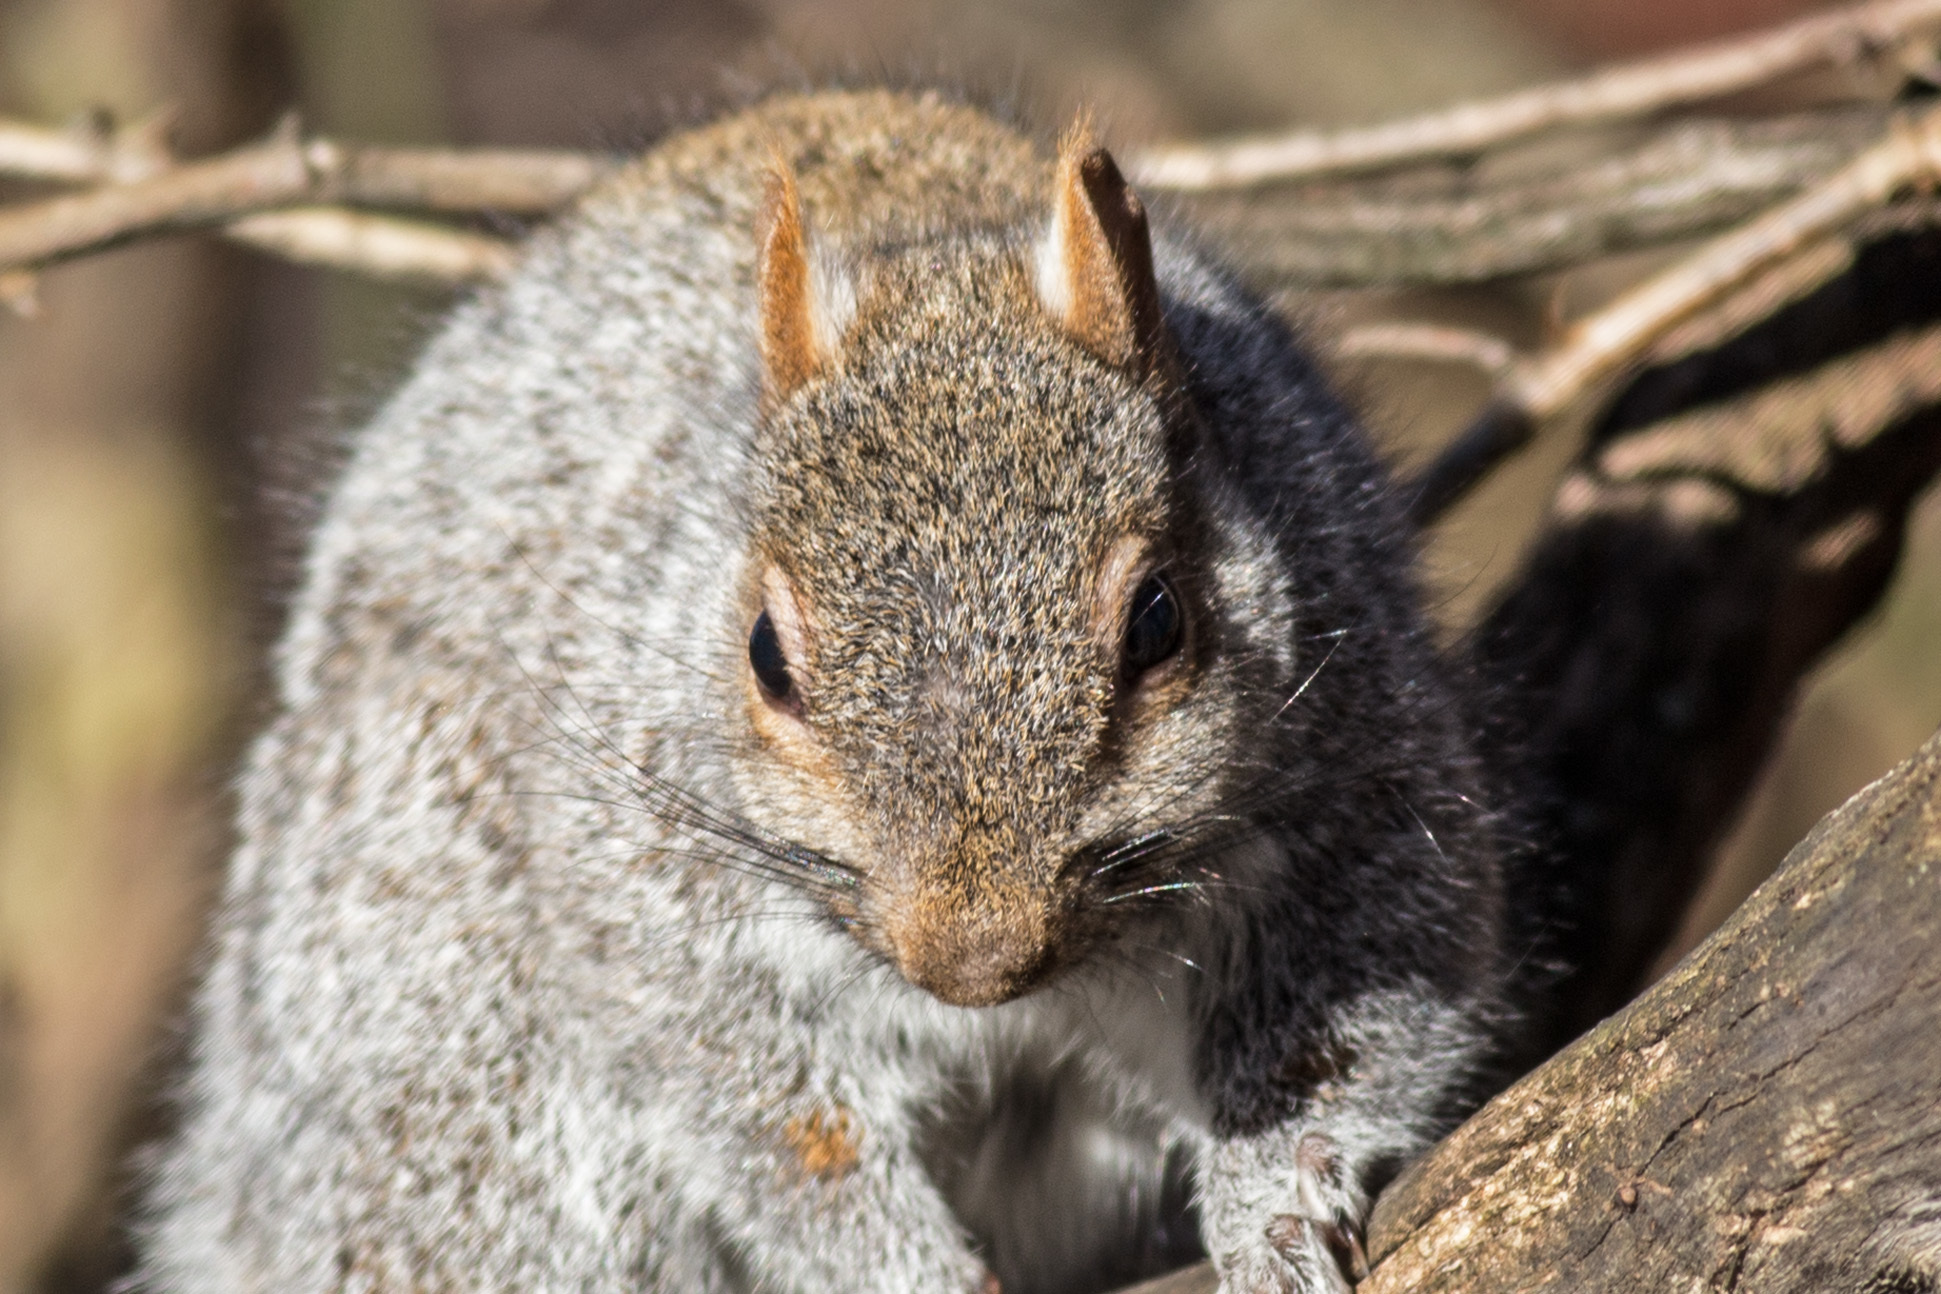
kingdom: Animalia
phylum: Chordata
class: Mammalia
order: Rodentia
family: Sciuridae
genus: Sciurus
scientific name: Sciurus carolinensis
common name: Eastern gray squirrel
